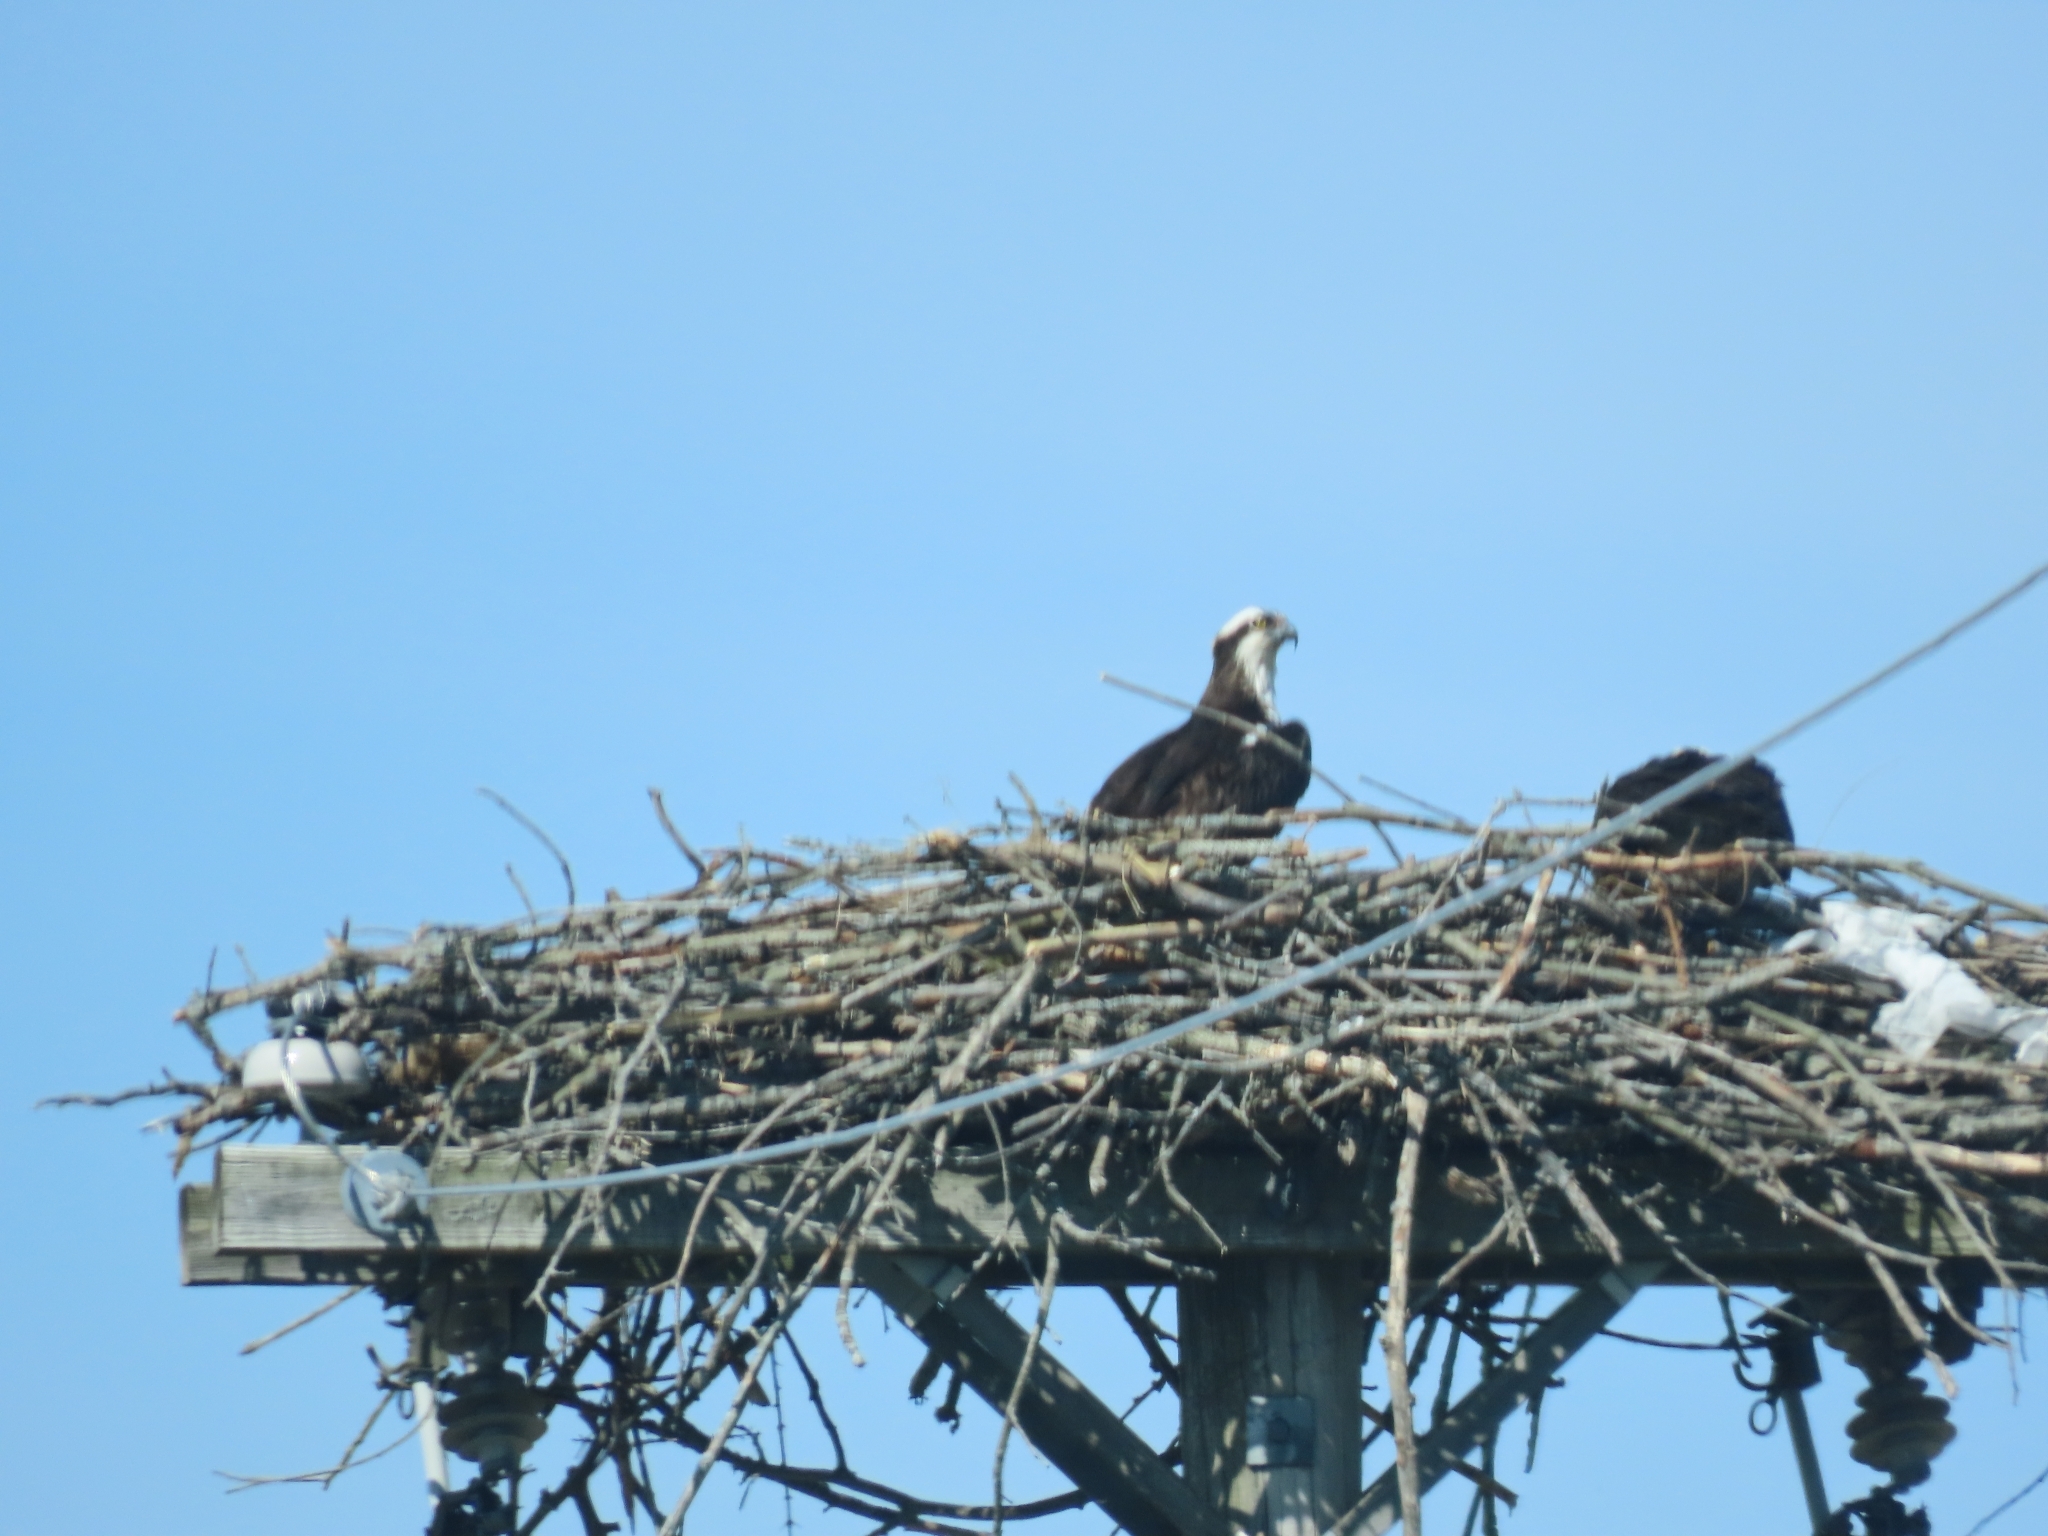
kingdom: Animalia
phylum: Chordata
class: Aves
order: Accipitriformes
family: Pandionidae
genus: Pandion
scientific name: Pandion haliaetus
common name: Osprey
